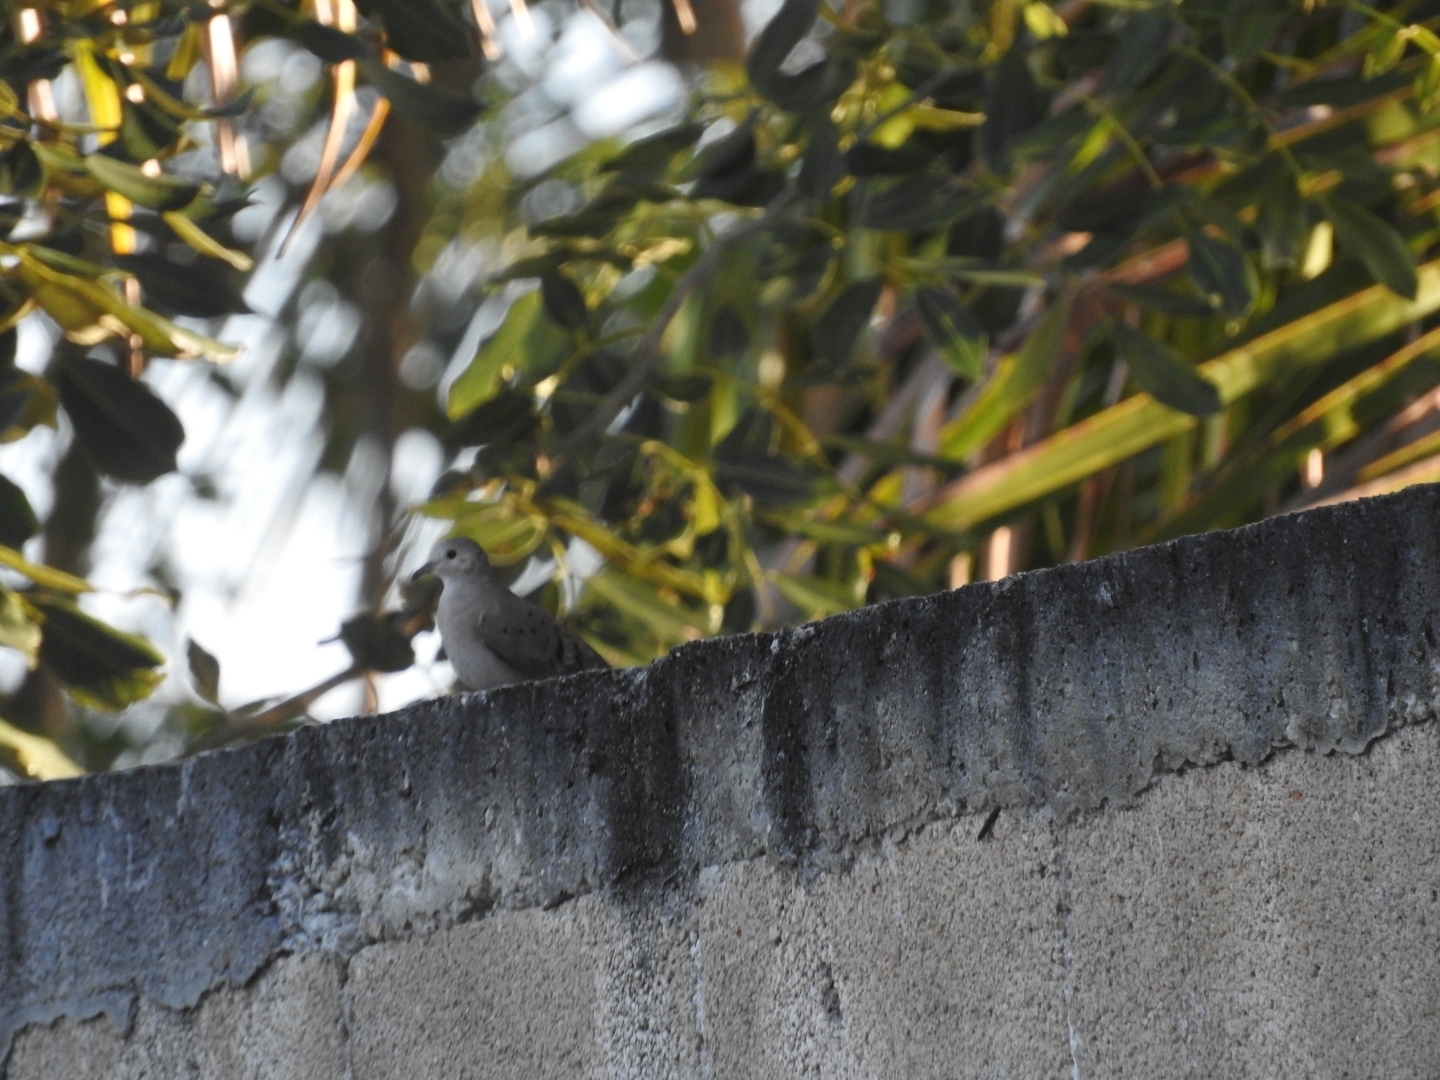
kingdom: Animalia
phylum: Chordata
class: Aves
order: Columbiformes
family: Columbidae
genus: Columbina
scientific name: Columbina minuta
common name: Plain-breasted ground dove
